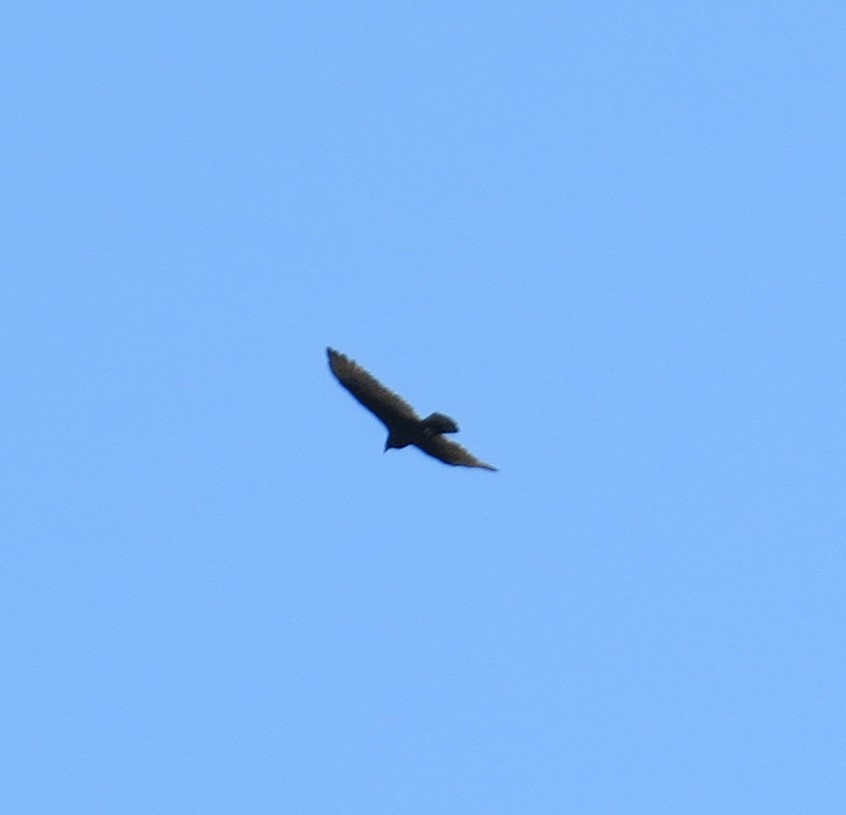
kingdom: Animalia
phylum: Chordata
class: Aves
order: Accipitriformes
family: Cathartidae
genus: Cathartes
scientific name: Cathartes aura
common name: Turkey vulture
